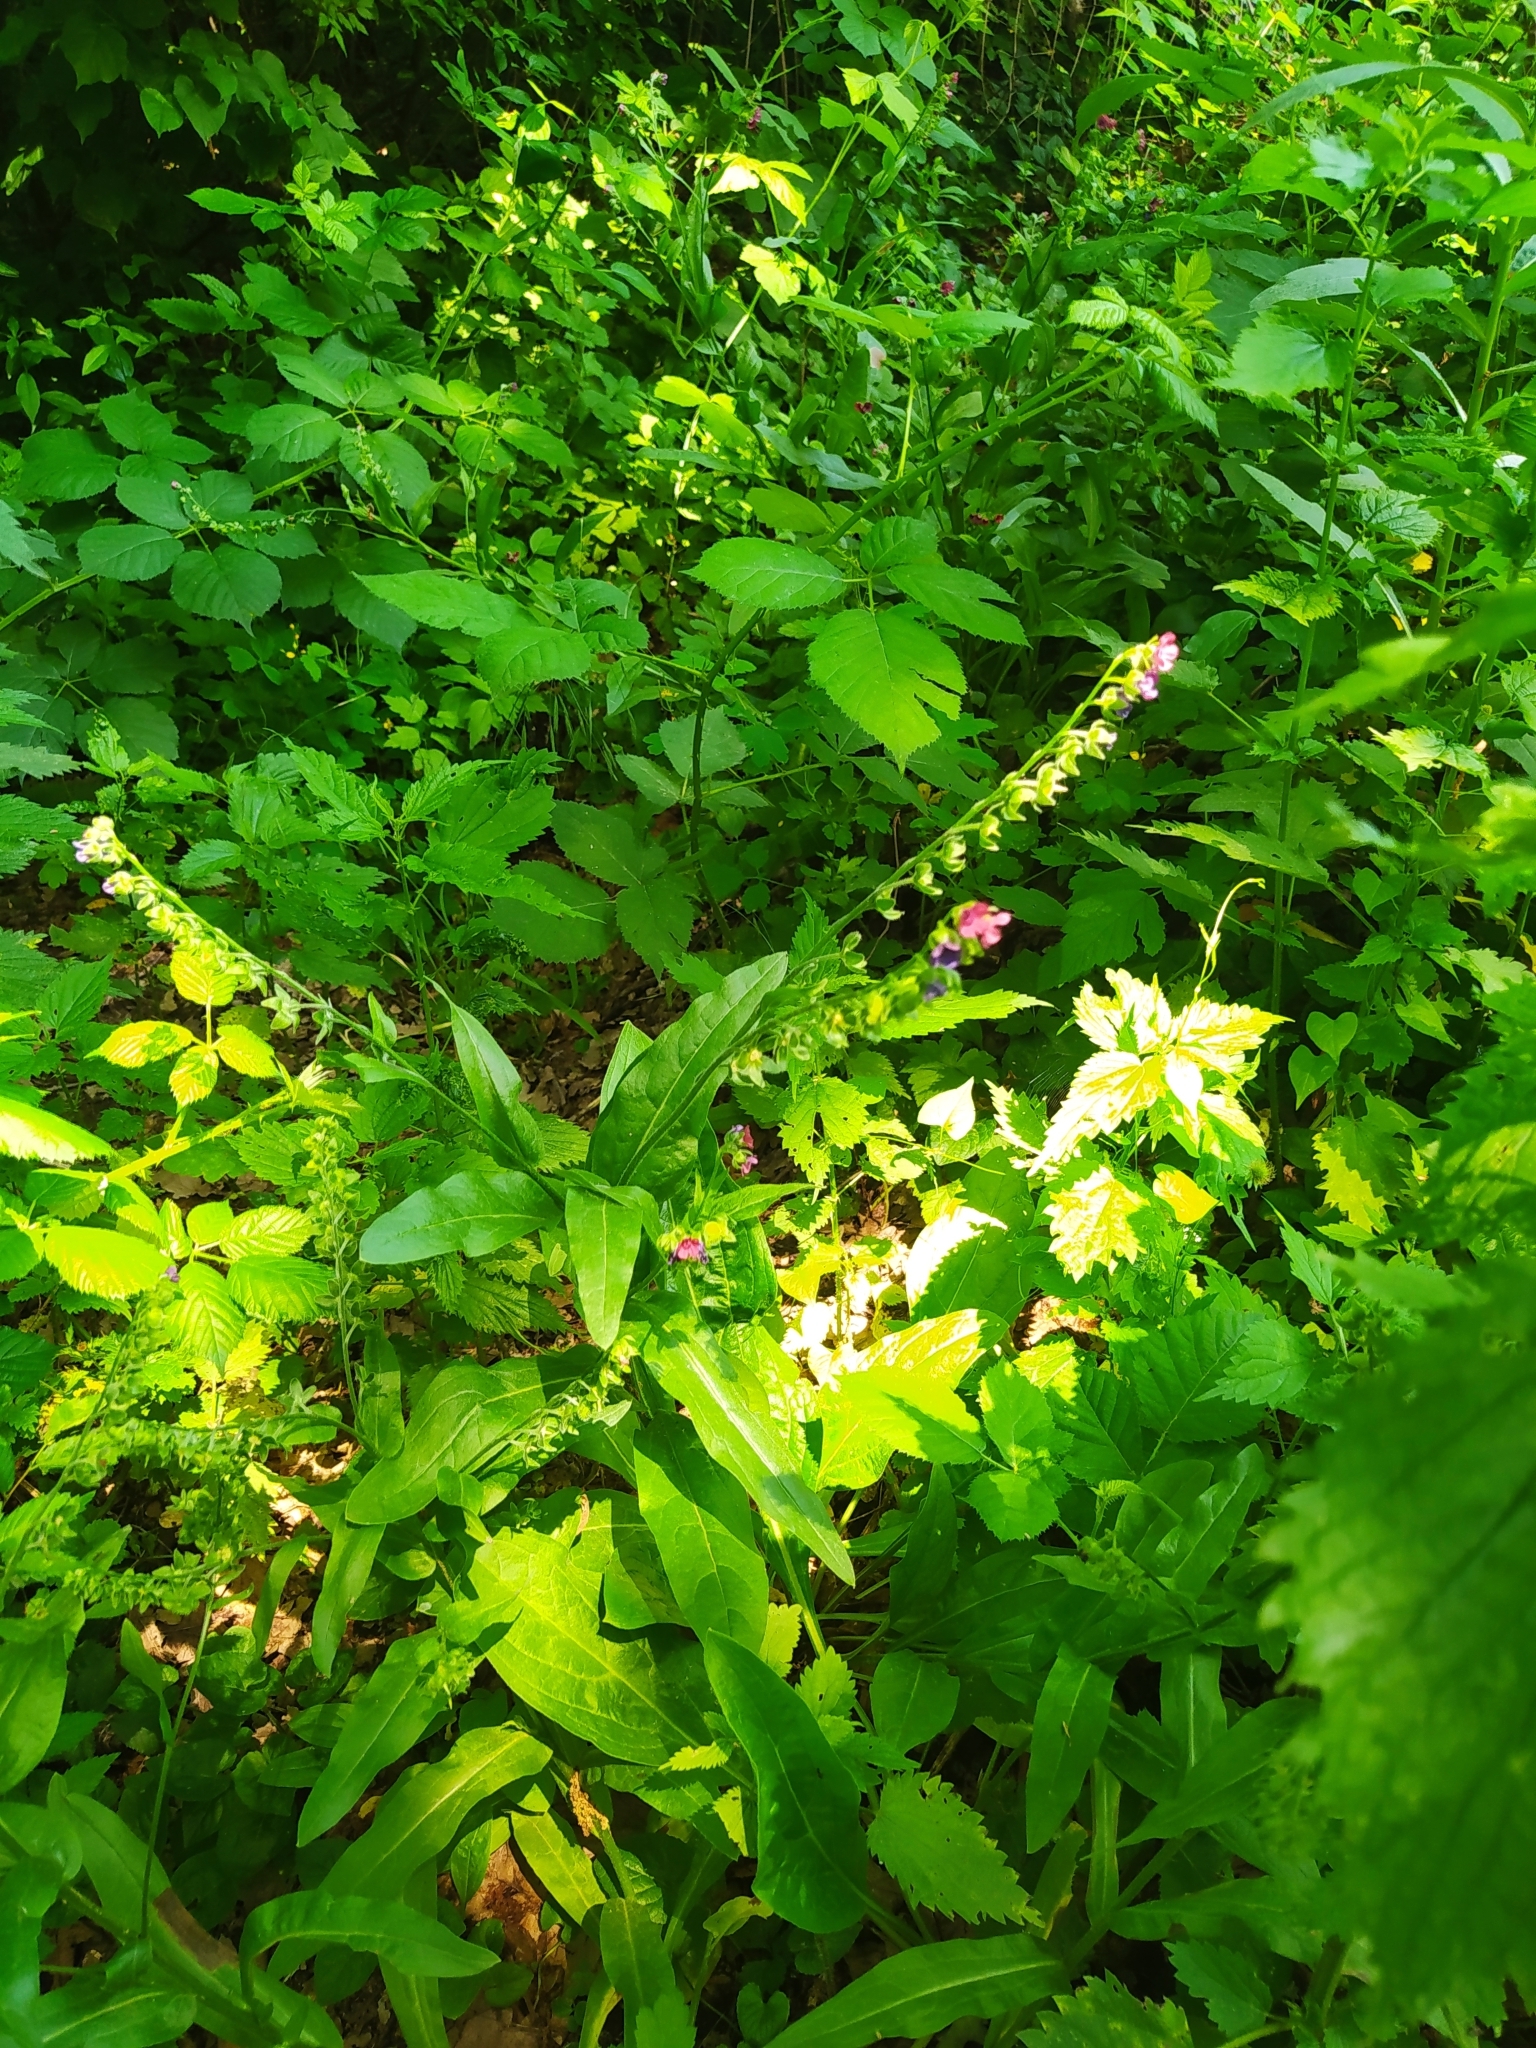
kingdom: Plantae
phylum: Tracheophyta
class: Magnoliopsida
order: Boraginales
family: Boraginaceae
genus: Cynoglossum
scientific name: Cynoglossum officinale
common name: Hound's-tongue
